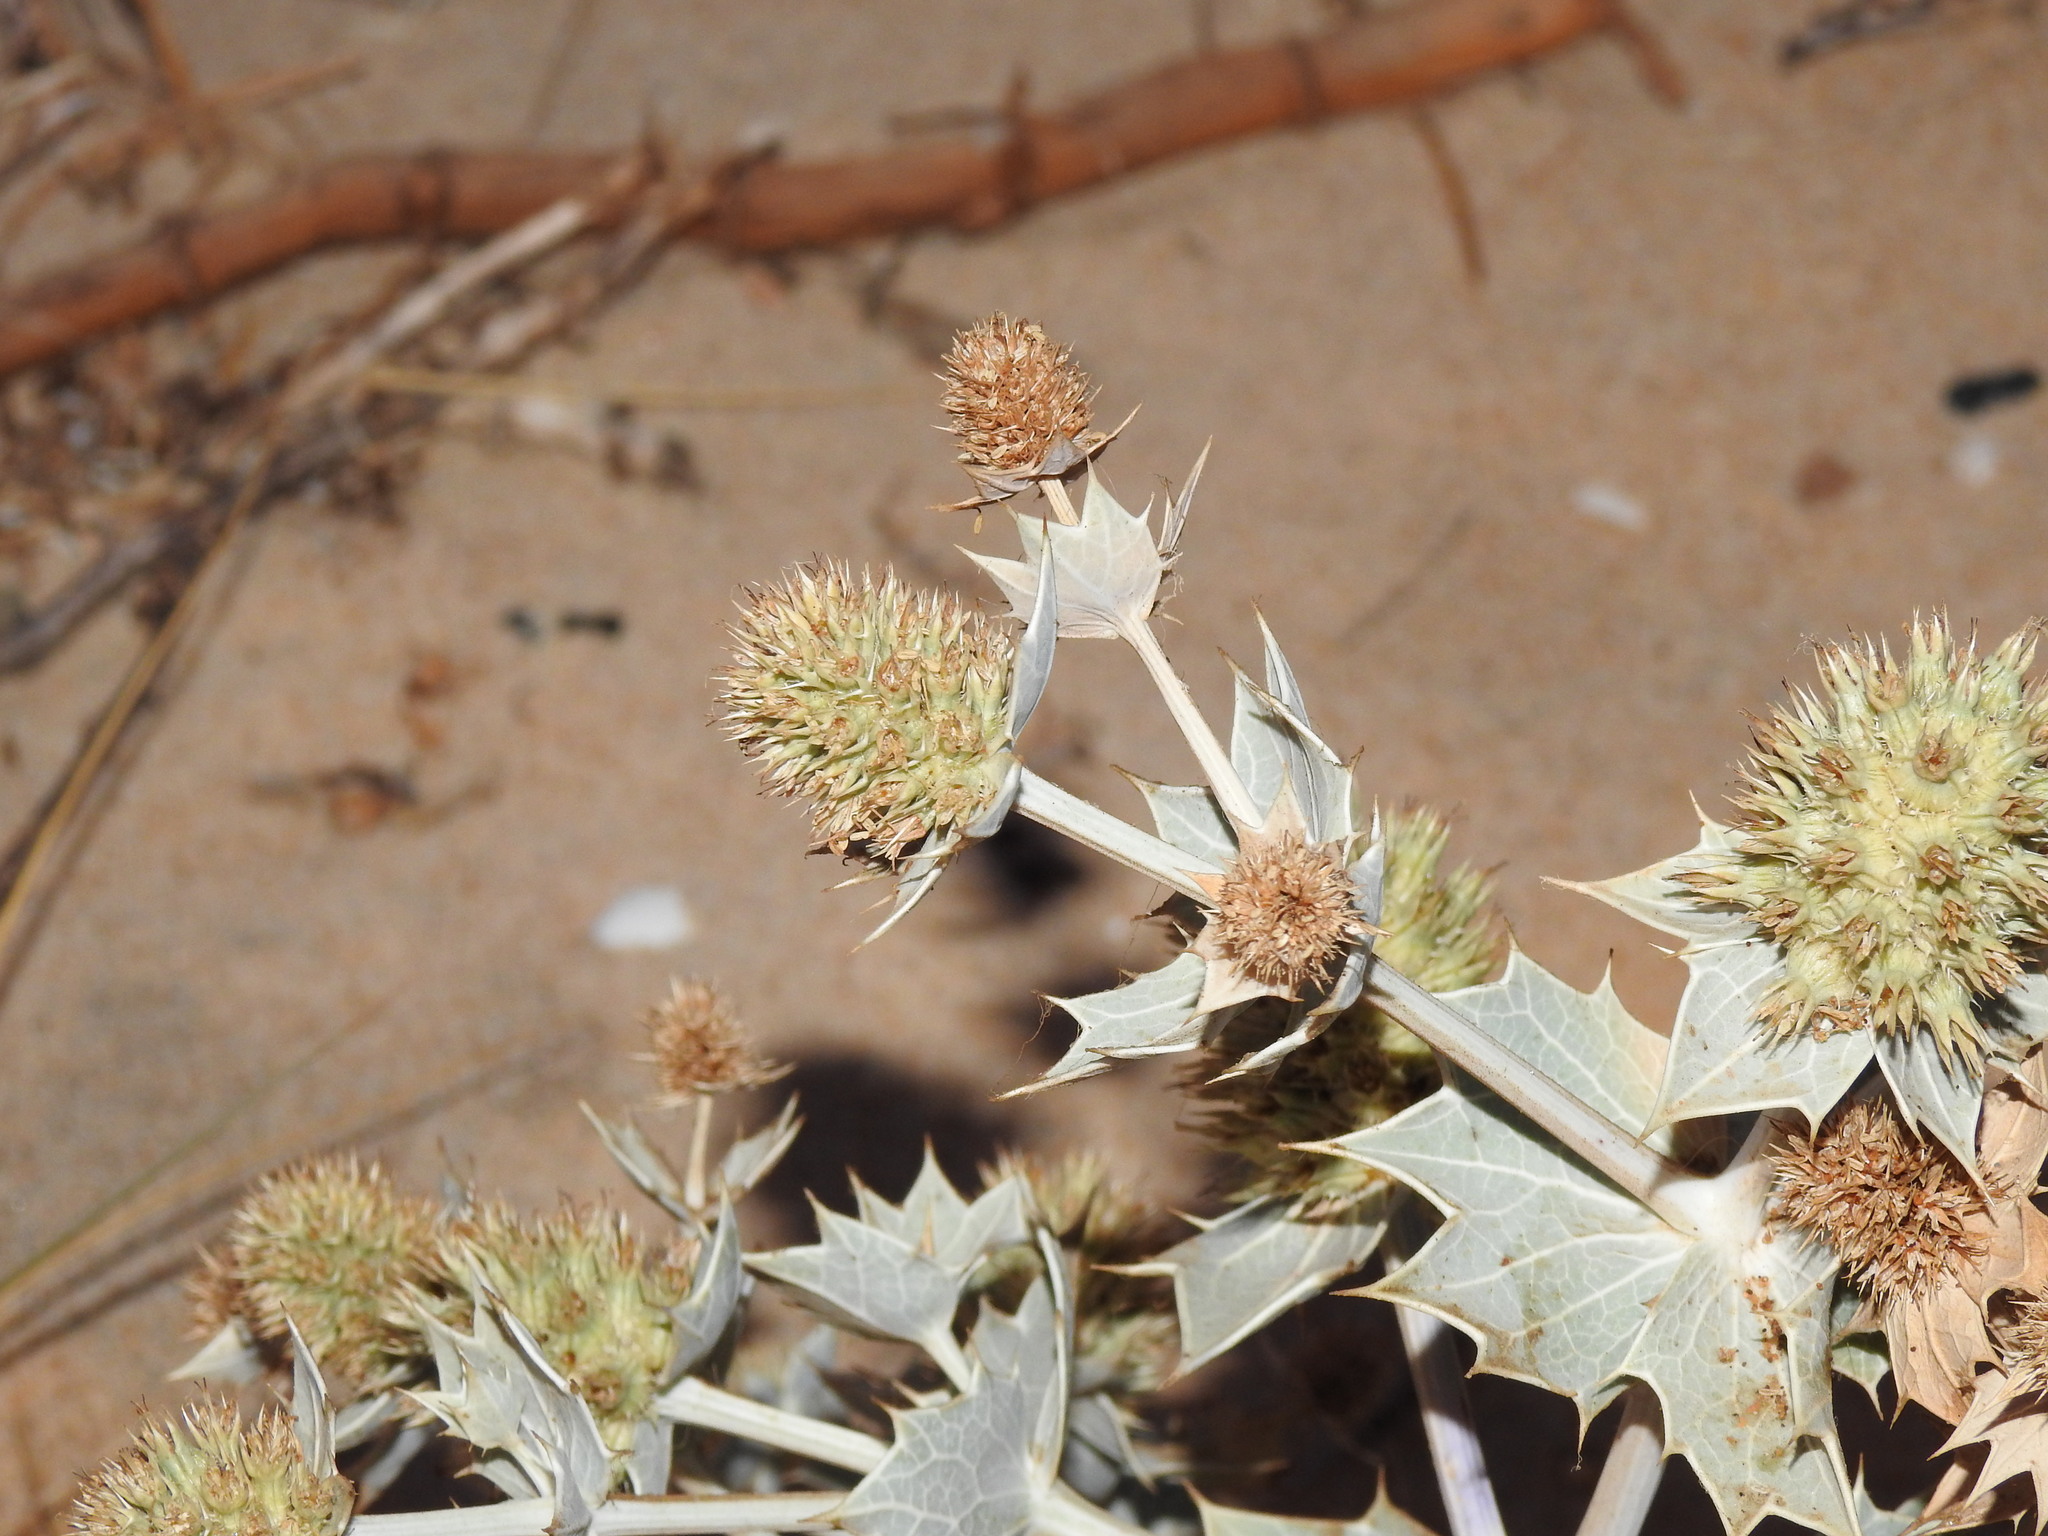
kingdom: Plantae
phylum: Tracheophyta
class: Magnoliopsida
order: Apiales
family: Apiaceae
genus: Eryngium
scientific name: Eryngium maritimum
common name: Sea-holly
